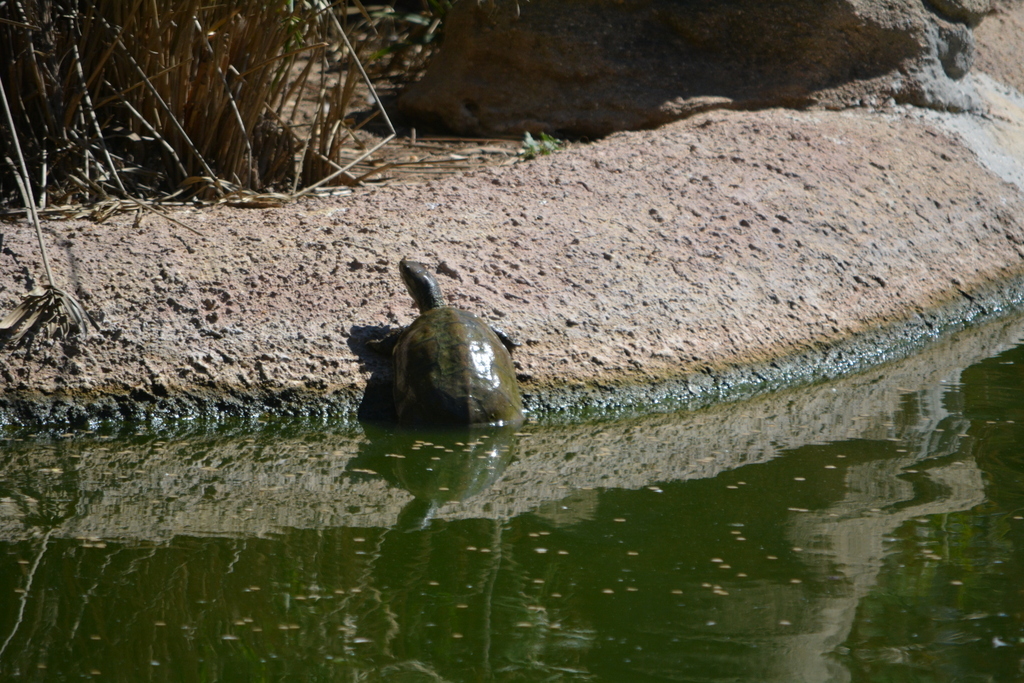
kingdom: Animalia
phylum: Chordata
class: Testudines
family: Geoemydidae
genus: Mauremys
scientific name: Mauremys leprosa
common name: Mediterranean pond turtle
